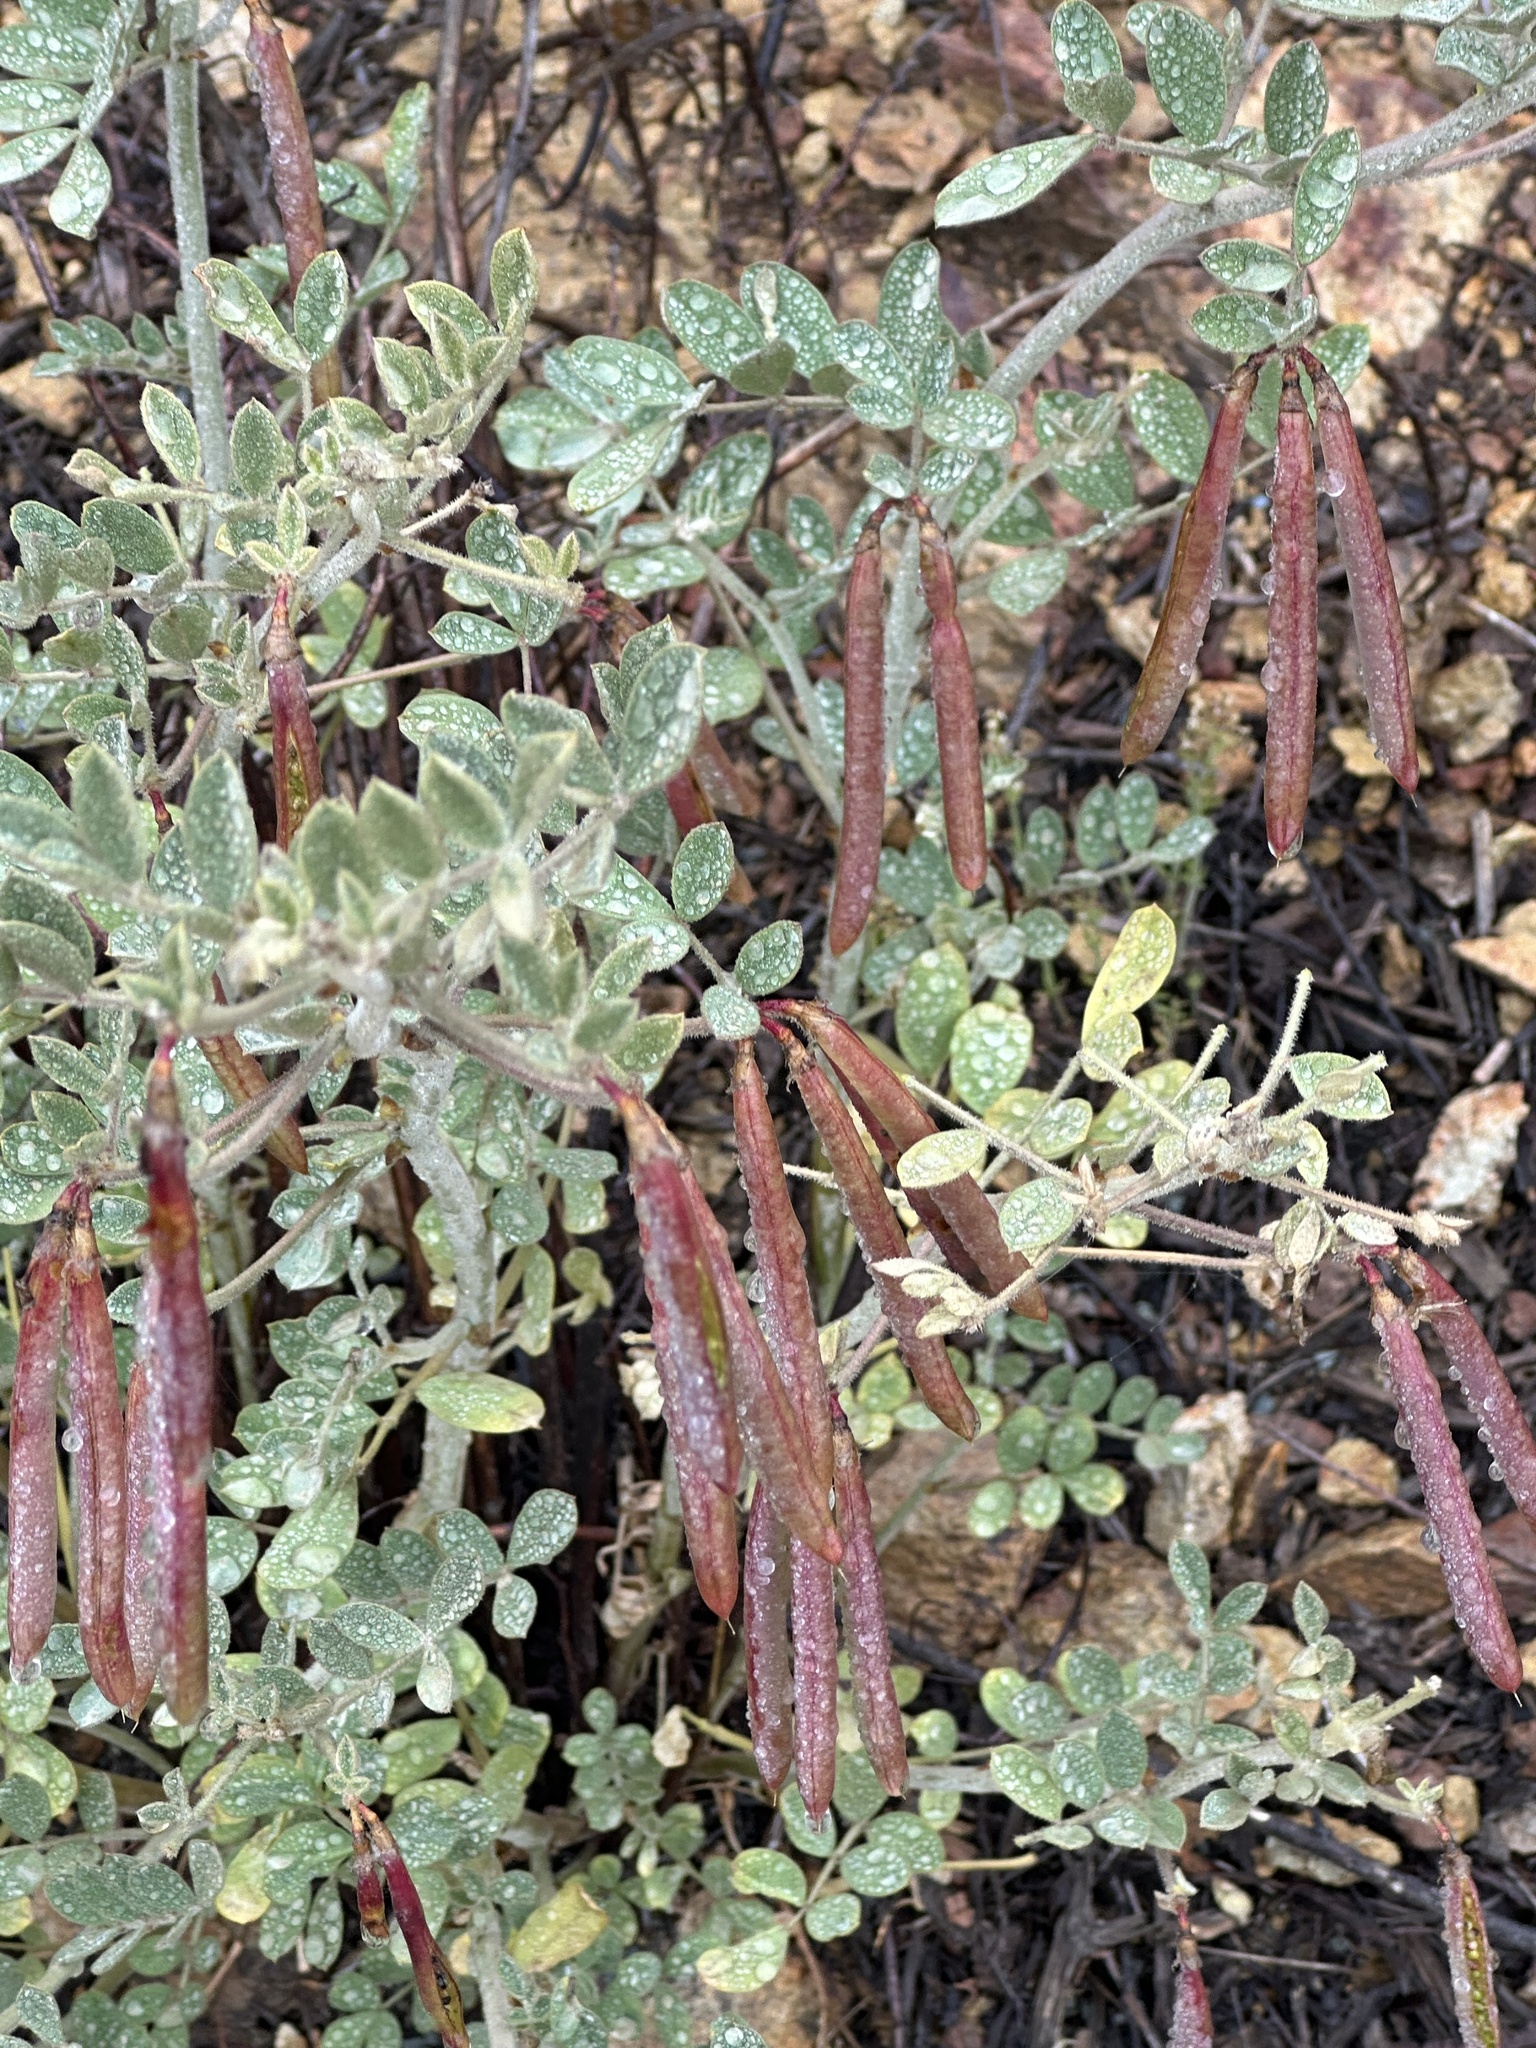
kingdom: Plantae
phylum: Tracheophyta
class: Magnoliopsida
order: Fabales
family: Fabaceae
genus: Hosackia
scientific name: Hosackia crassifolia
